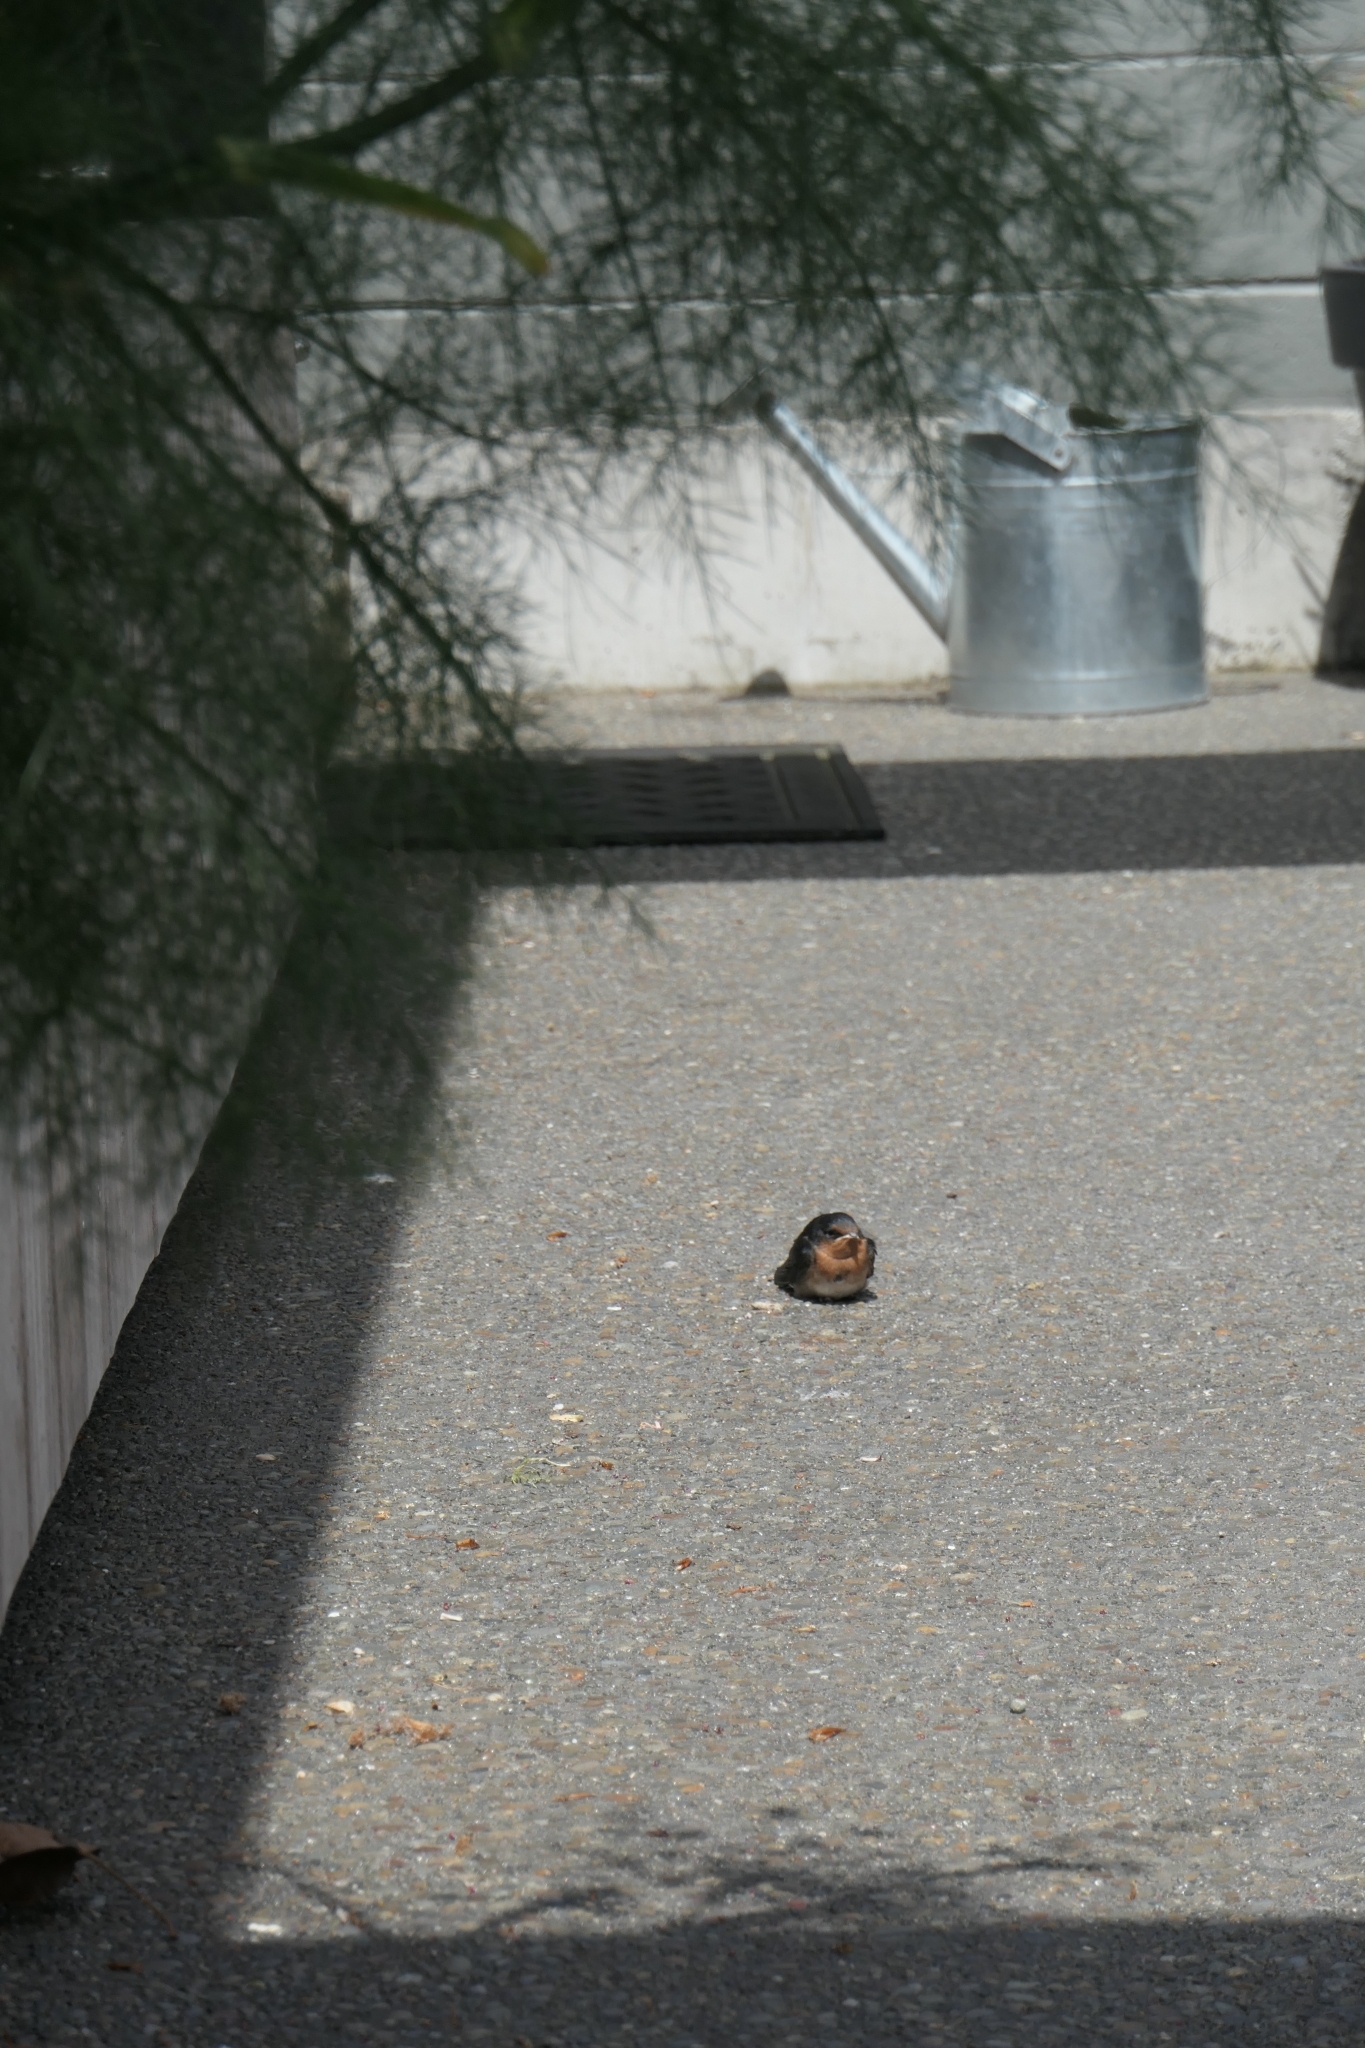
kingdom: Animalia
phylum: Chordata
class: Aves
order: Passeriformes
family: Hirundinidae
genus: Hirundo
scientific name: Hirundo neoxena
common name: Welcome swallow
